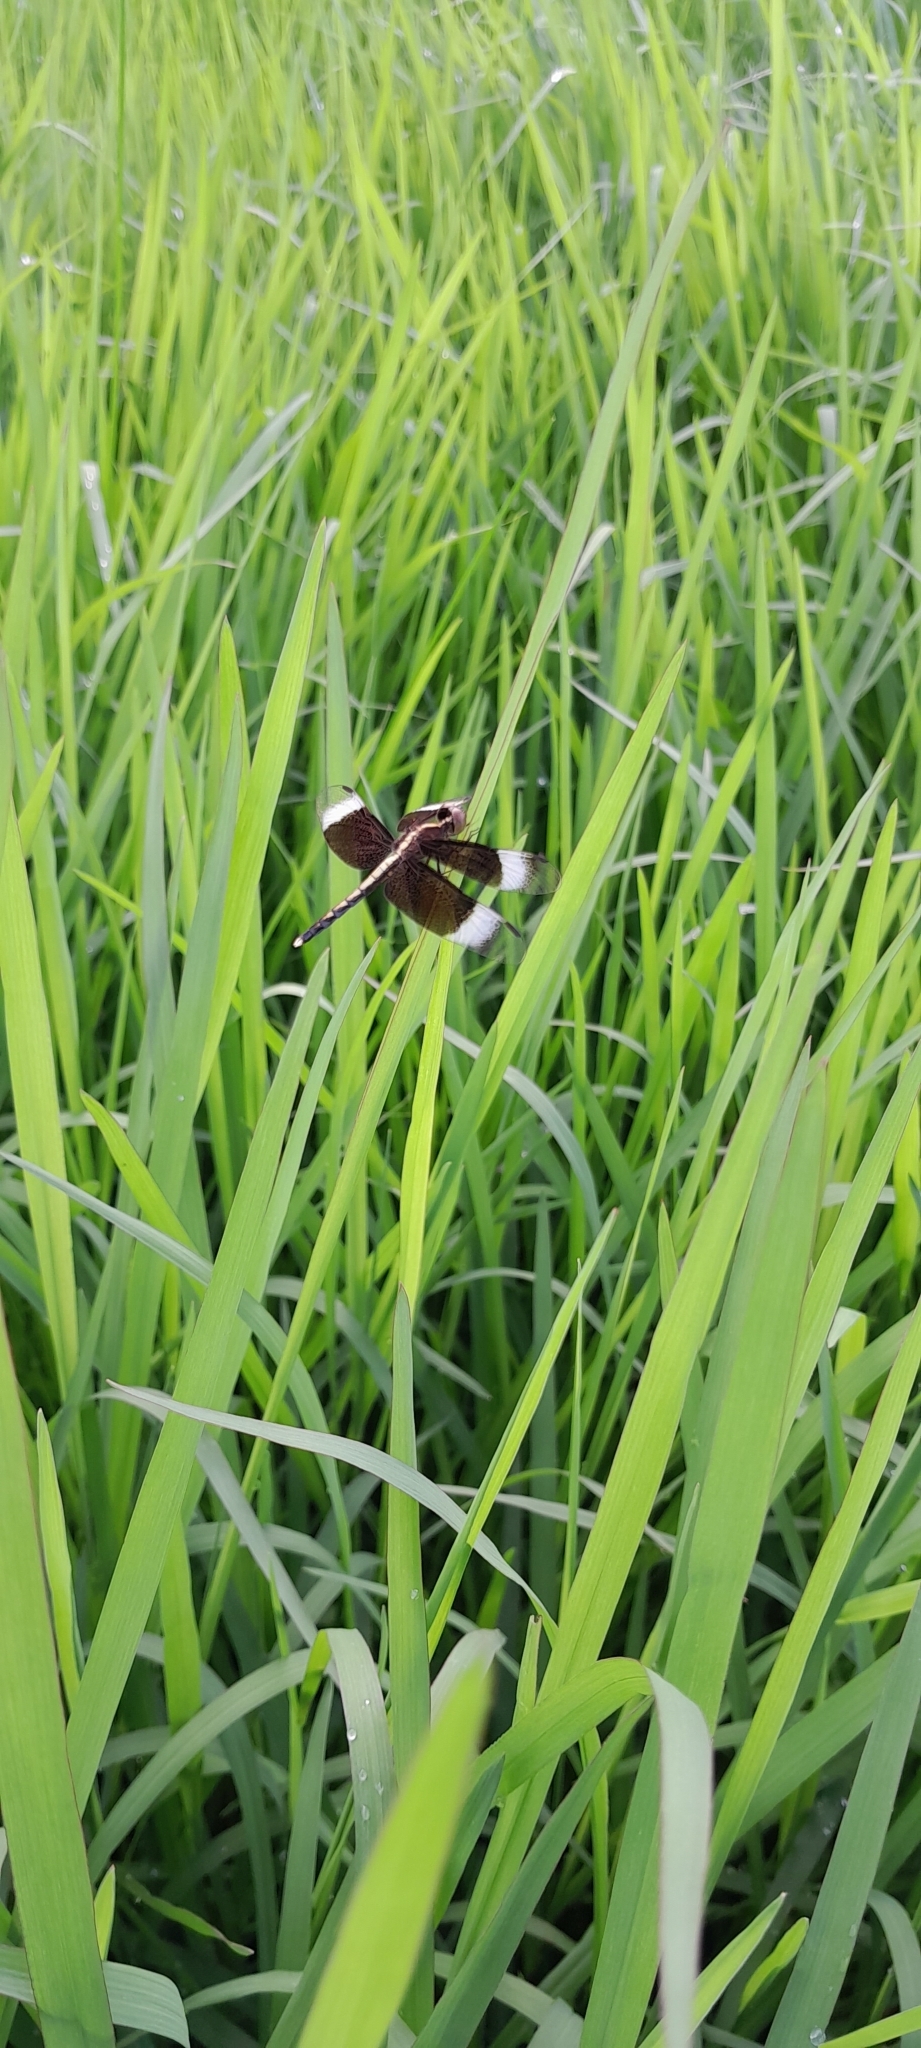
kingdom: Animalia
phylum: Arthropoda
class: Insecta
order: Odonata
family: Libellulidae
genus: Neurothemis
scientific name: Neurothemis tullia
